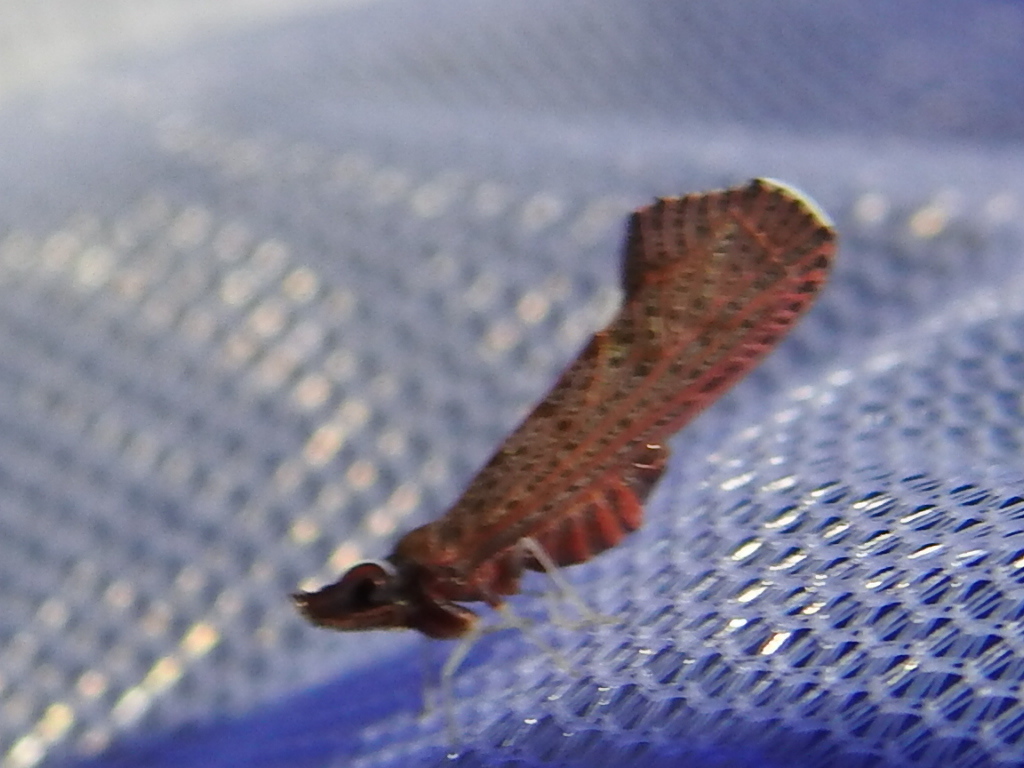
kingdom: Animalia
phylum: Arthropoda
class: Insecta
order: Hemiptera
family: Derbidae
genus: Apache
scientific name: Apache degeeri
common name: Red-fanned planthopper
